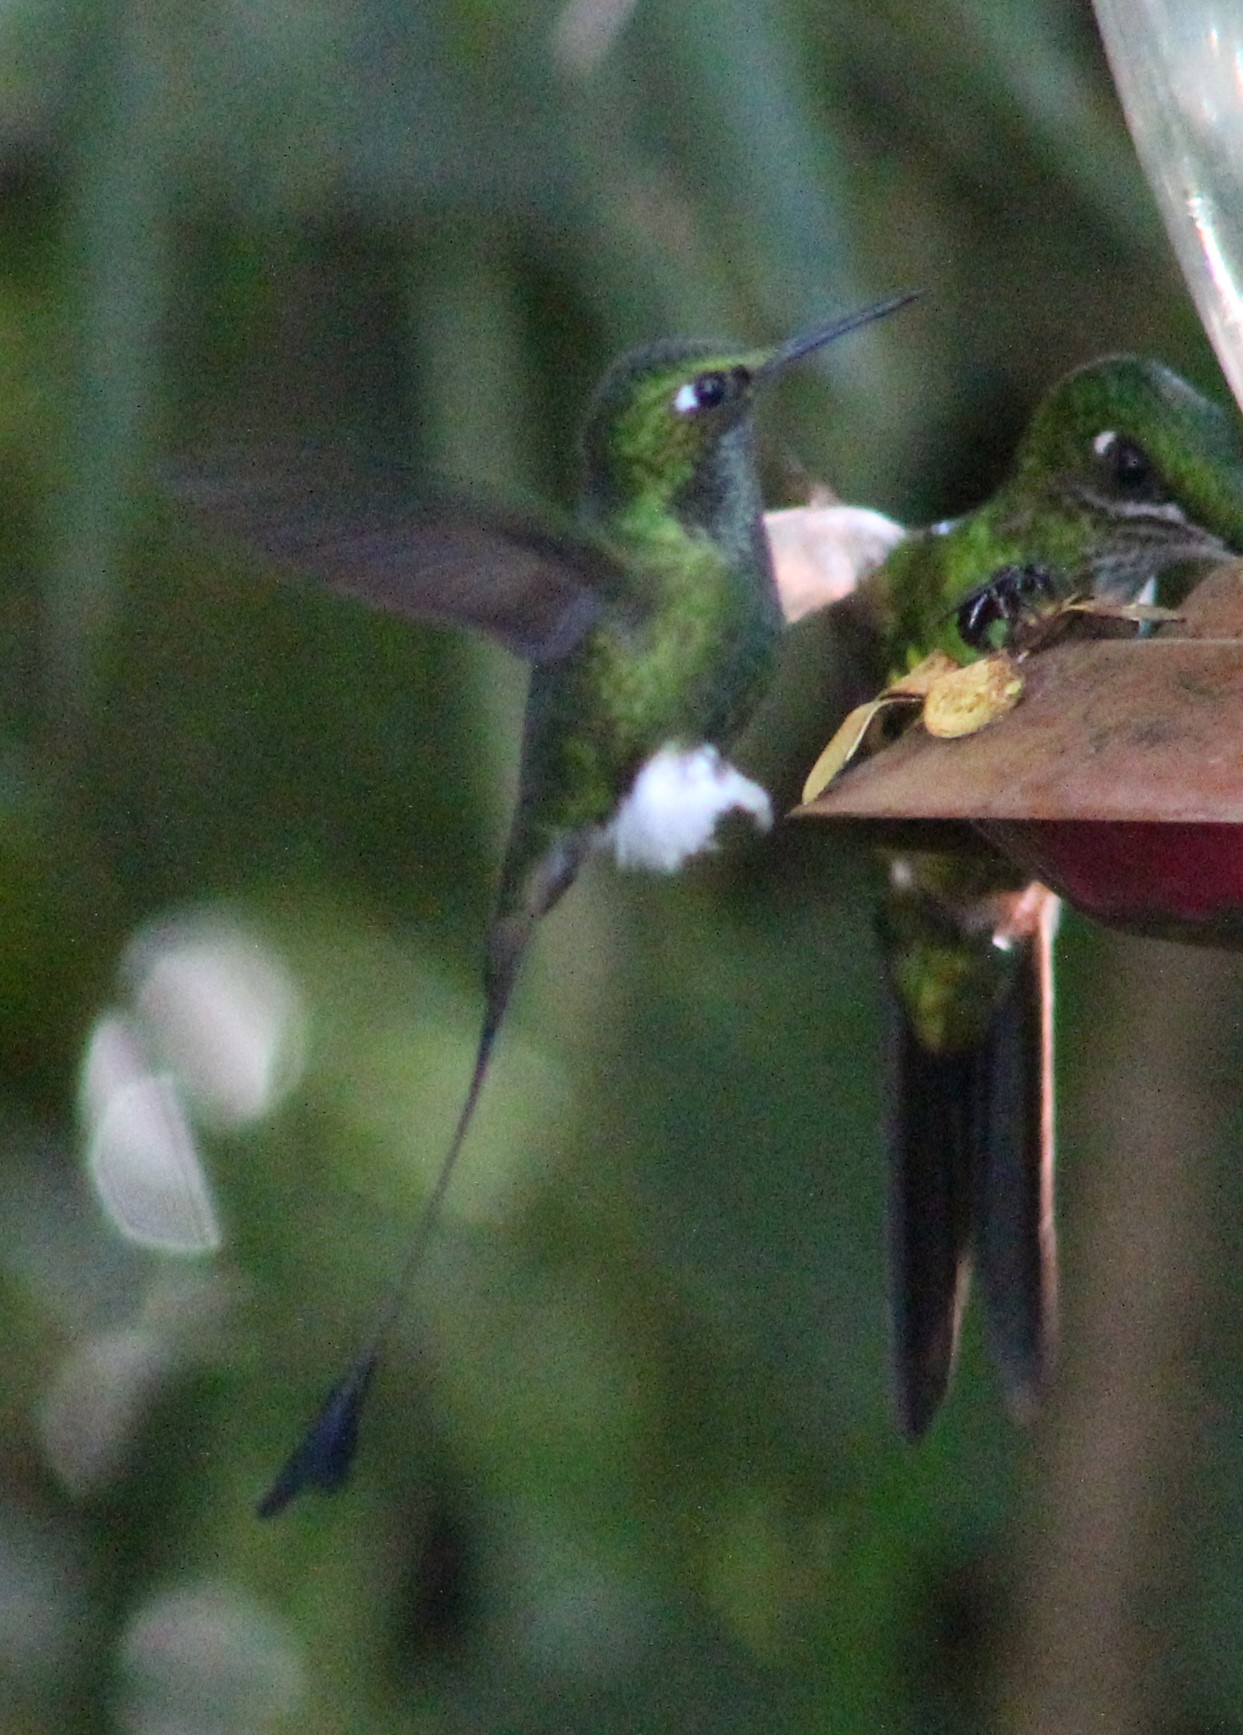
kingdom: Animalia
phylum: Chordata
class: Aves
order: Apodiformes
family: Trochilidae
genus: Ocreatus
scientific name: Ocreatus underwoodii
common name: Booted racket-tail
